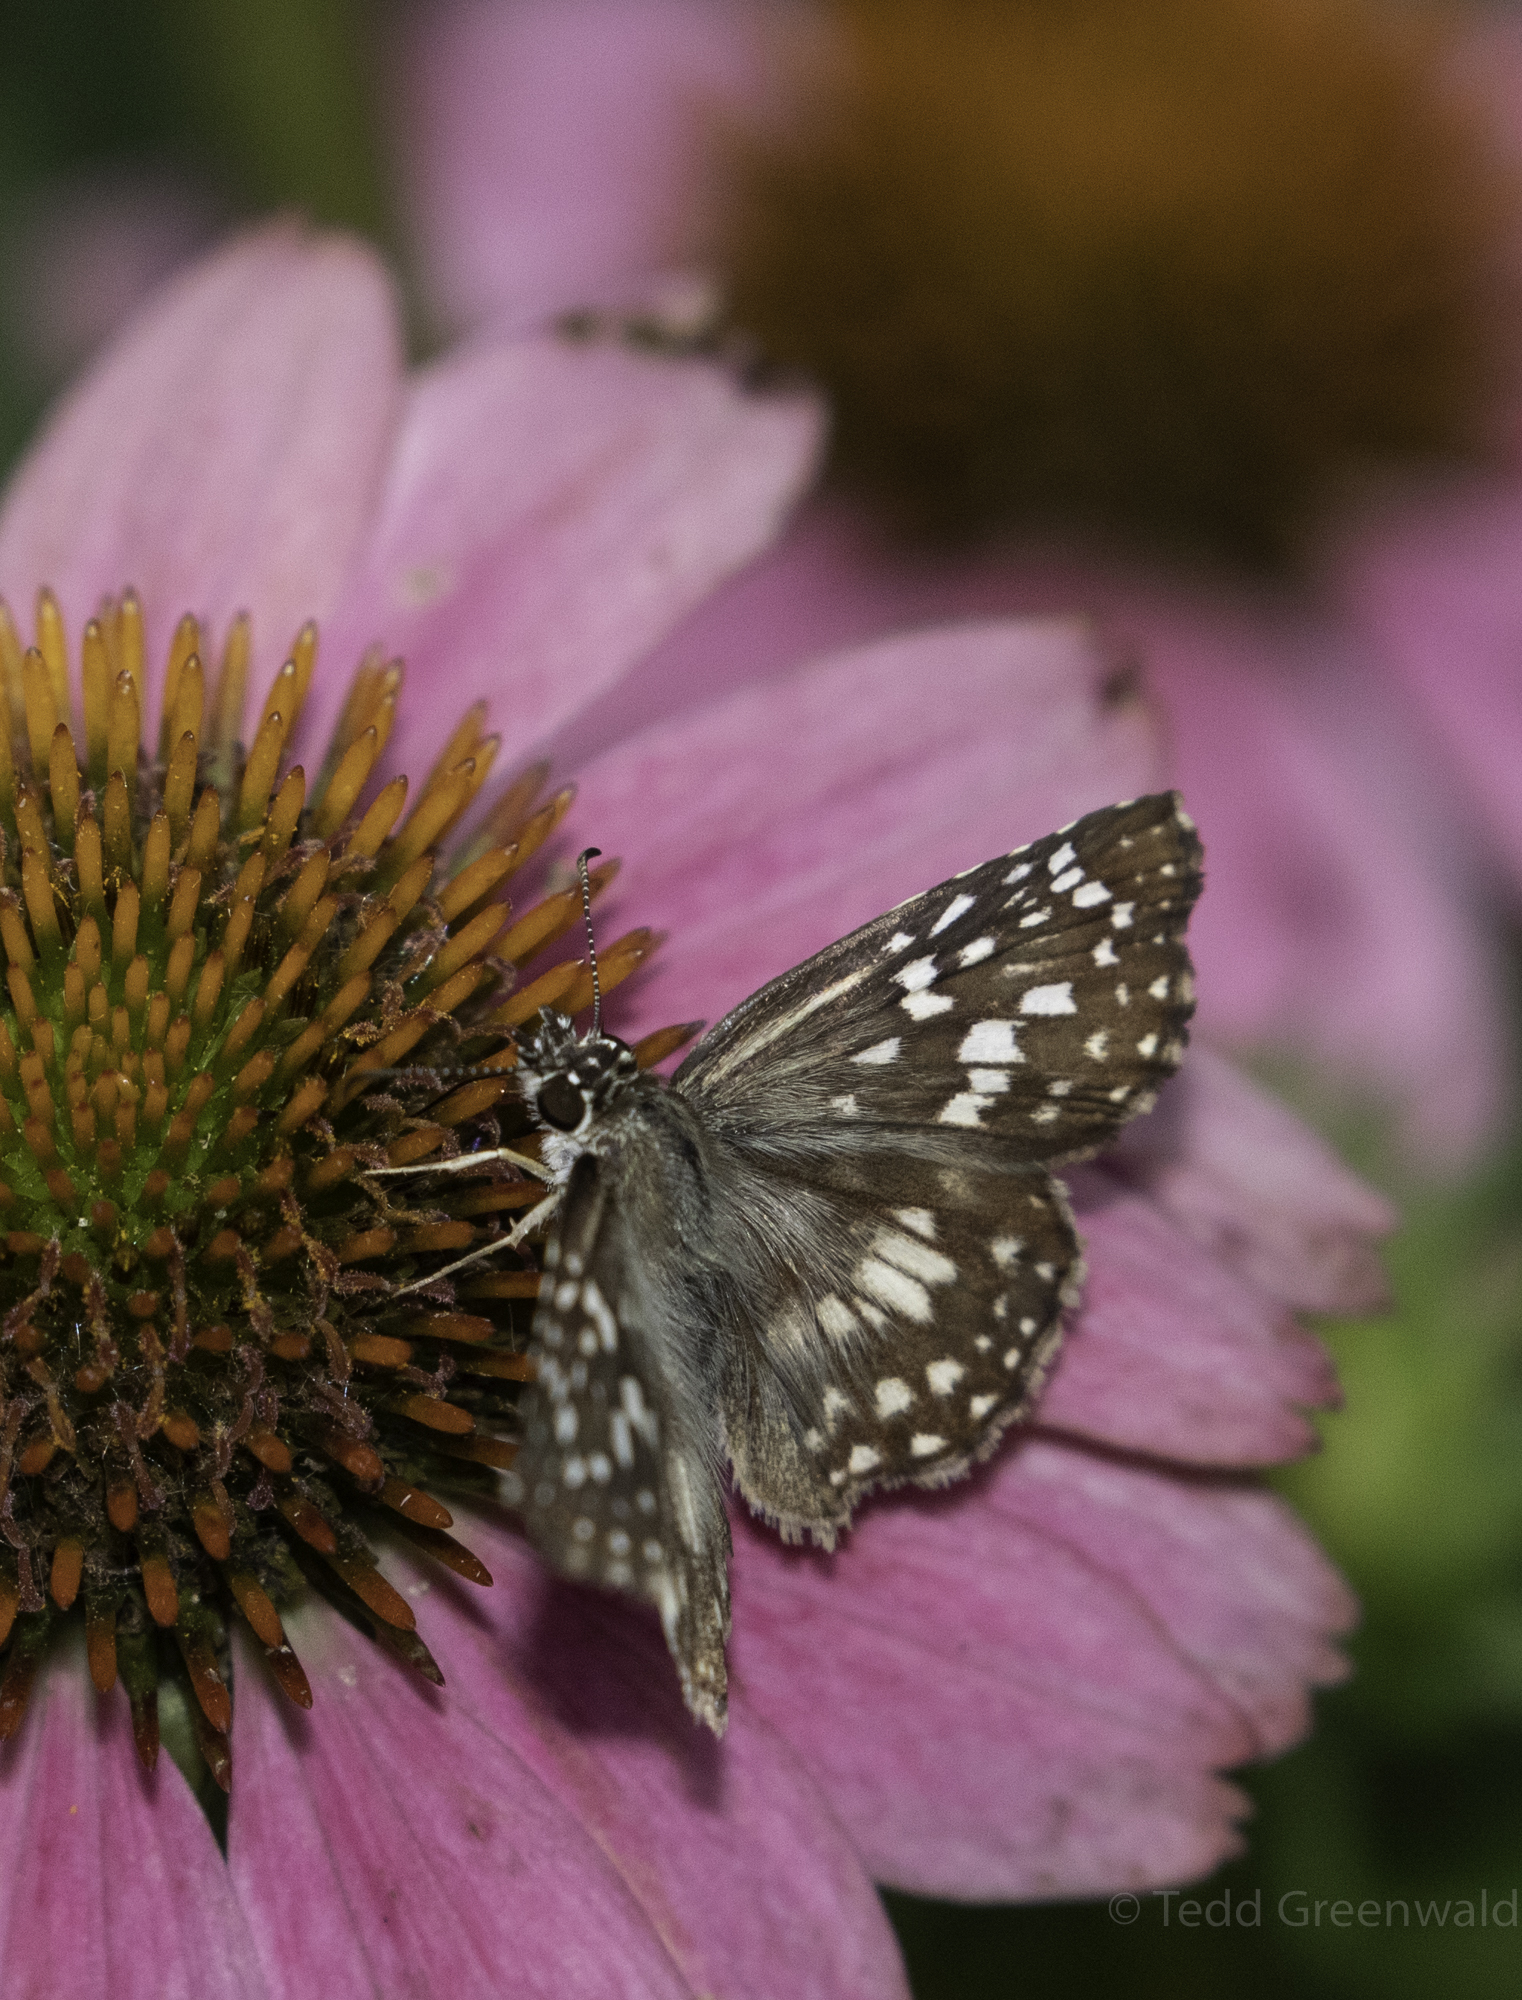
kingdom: Animalia
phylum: Arthropoda
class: Insecta
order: Lepidoptera
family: Hesperiidae
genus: Pyrgus
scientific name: Pyrgus oileus
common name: Tropical checkered-skipper
